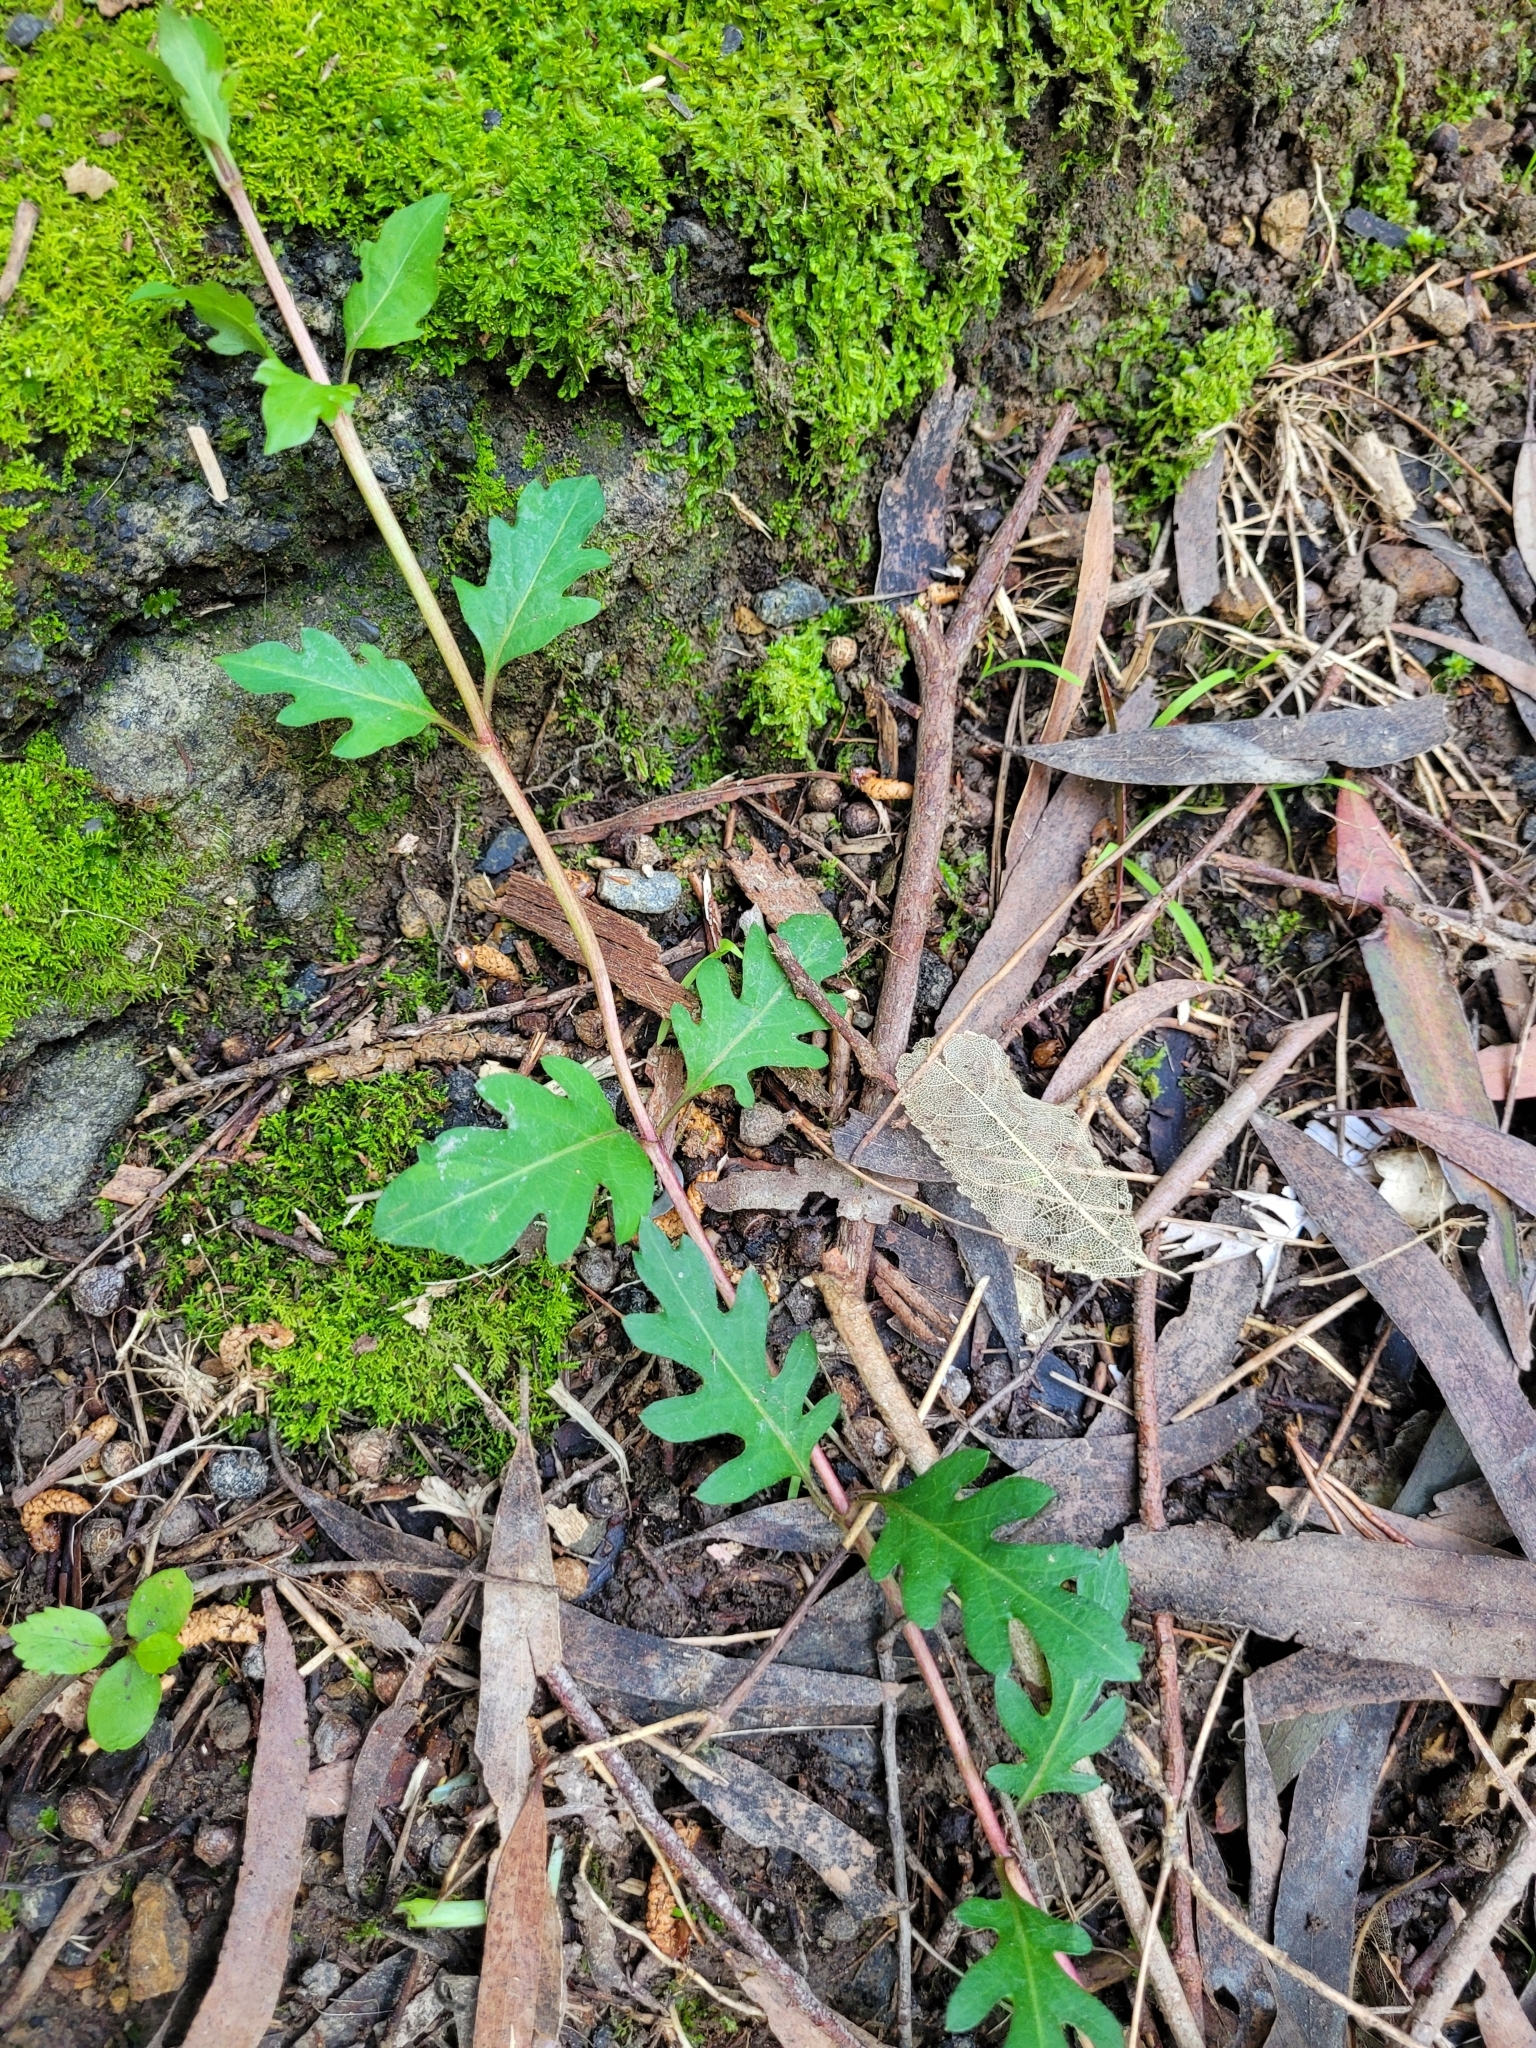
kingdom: Plantae
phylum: Tracheophyta
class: Magnoliopsida
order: Dipsacales
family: Caprifoliaceae
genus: Lonicera
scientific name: Lonicera japonica
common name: Japanese honeysuckle
